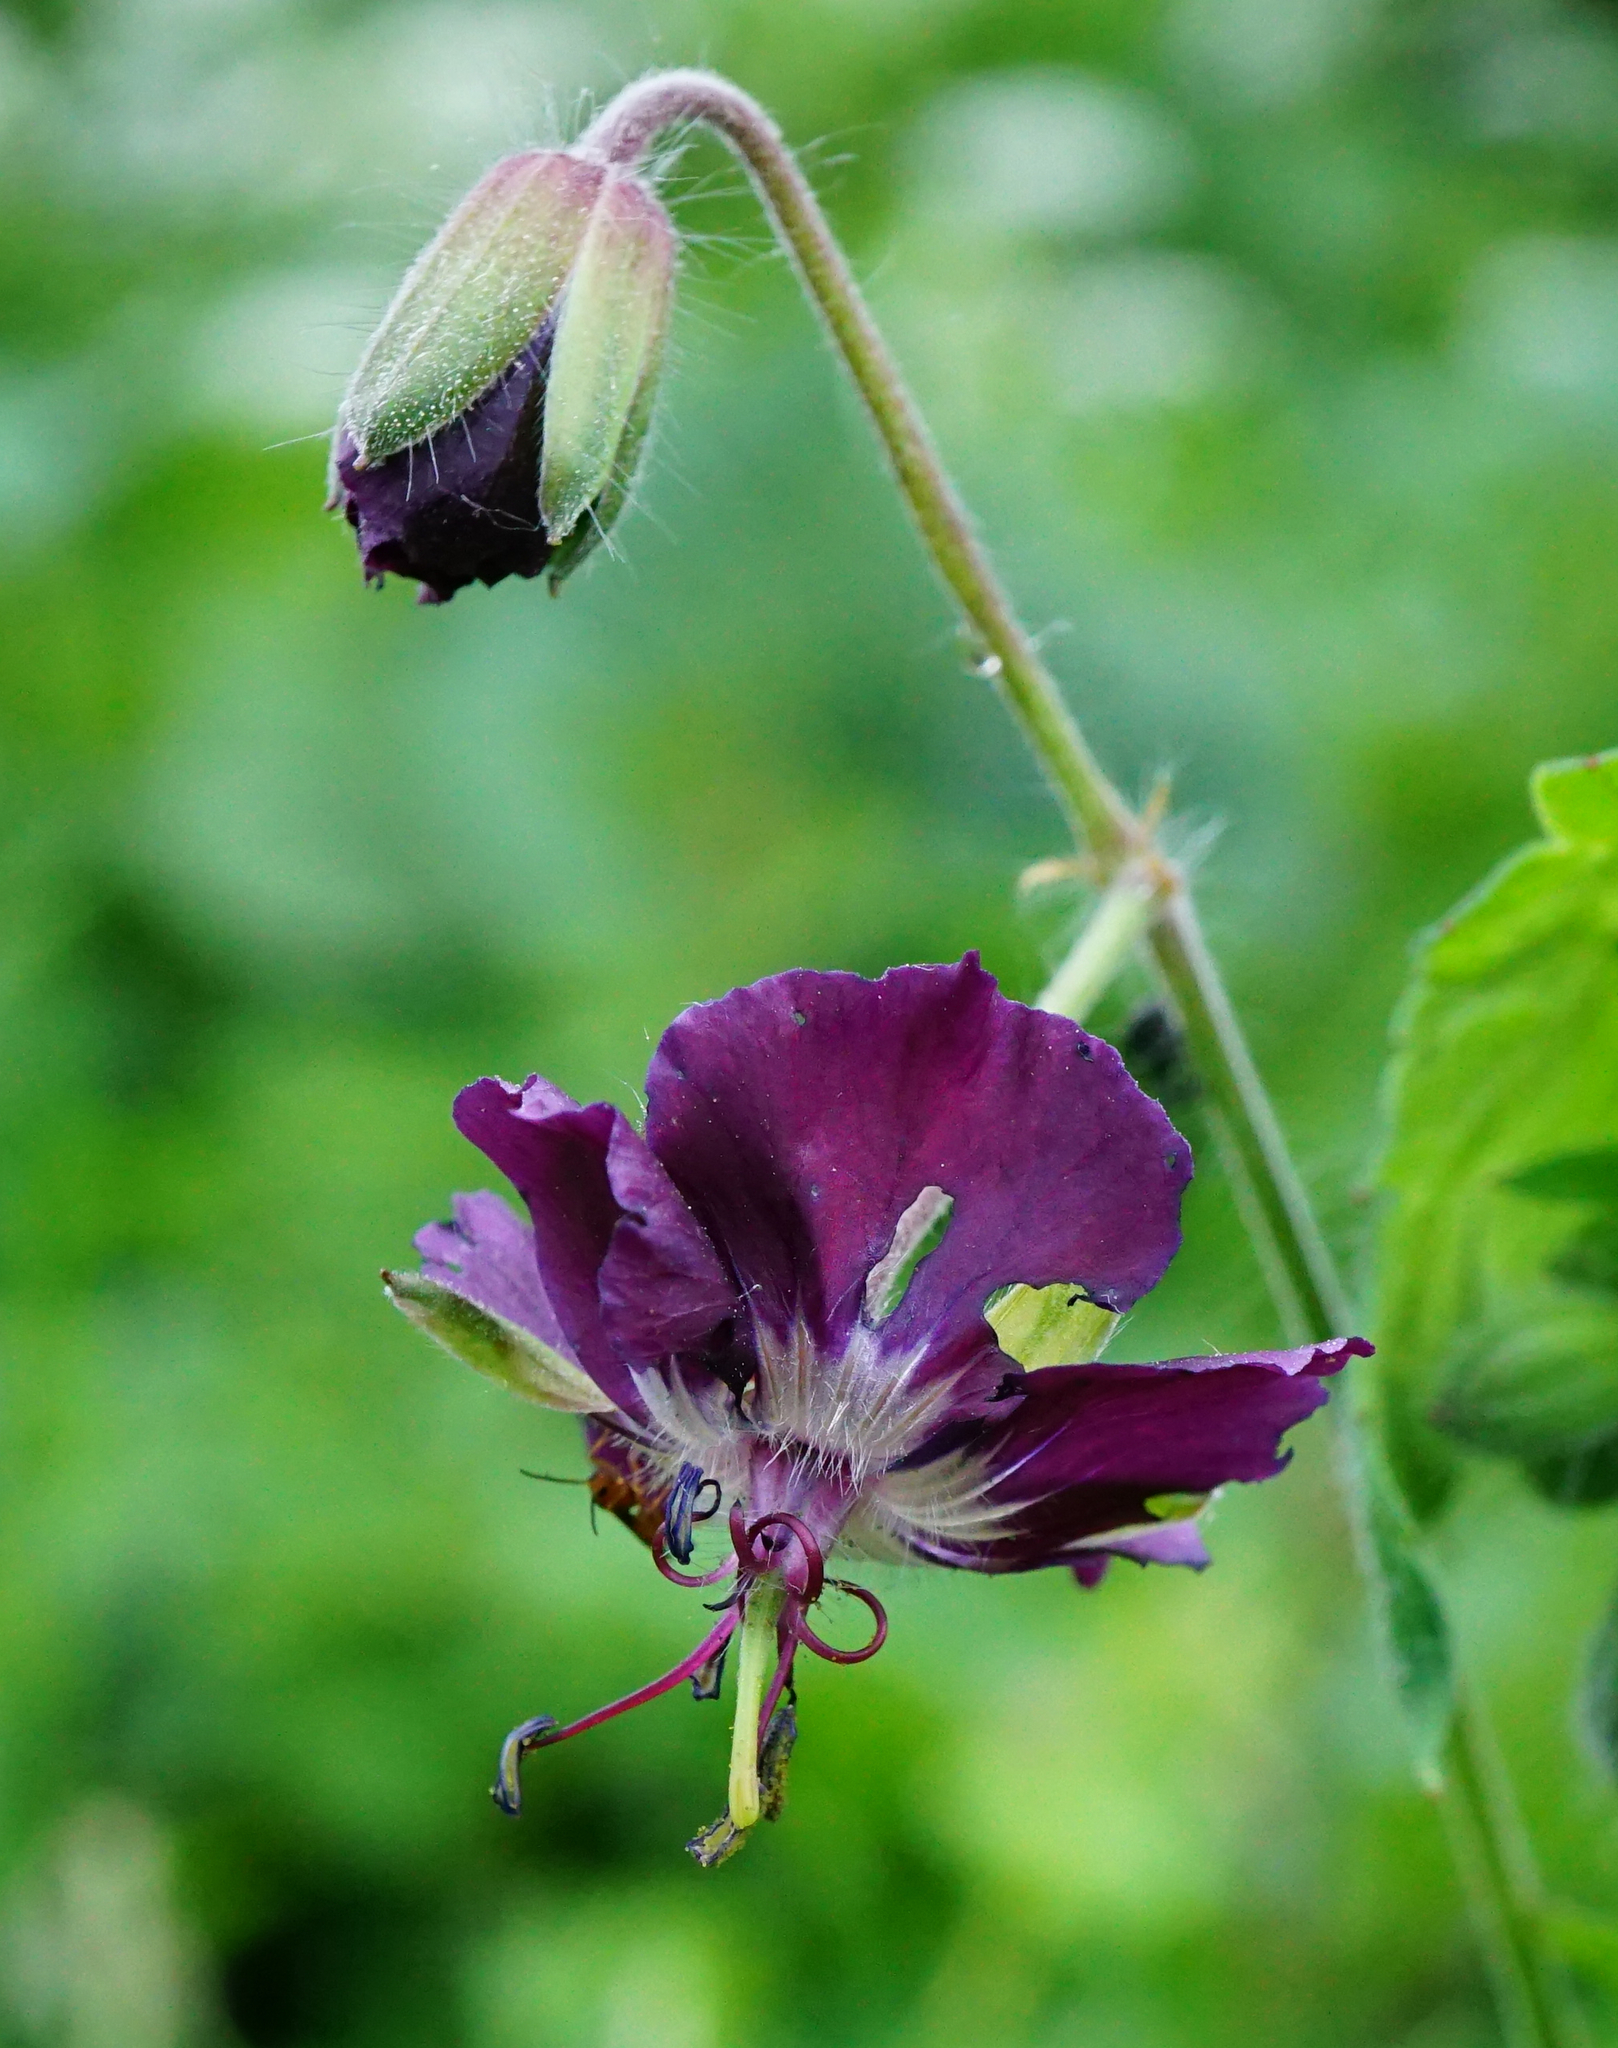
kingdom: Plantae
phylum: Tracheophyta
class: Magnoliopsida
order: Geraniales
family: Geraniaceae
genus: Geranium
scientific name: Geranium phaeum
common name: Dusky crane's-bill
